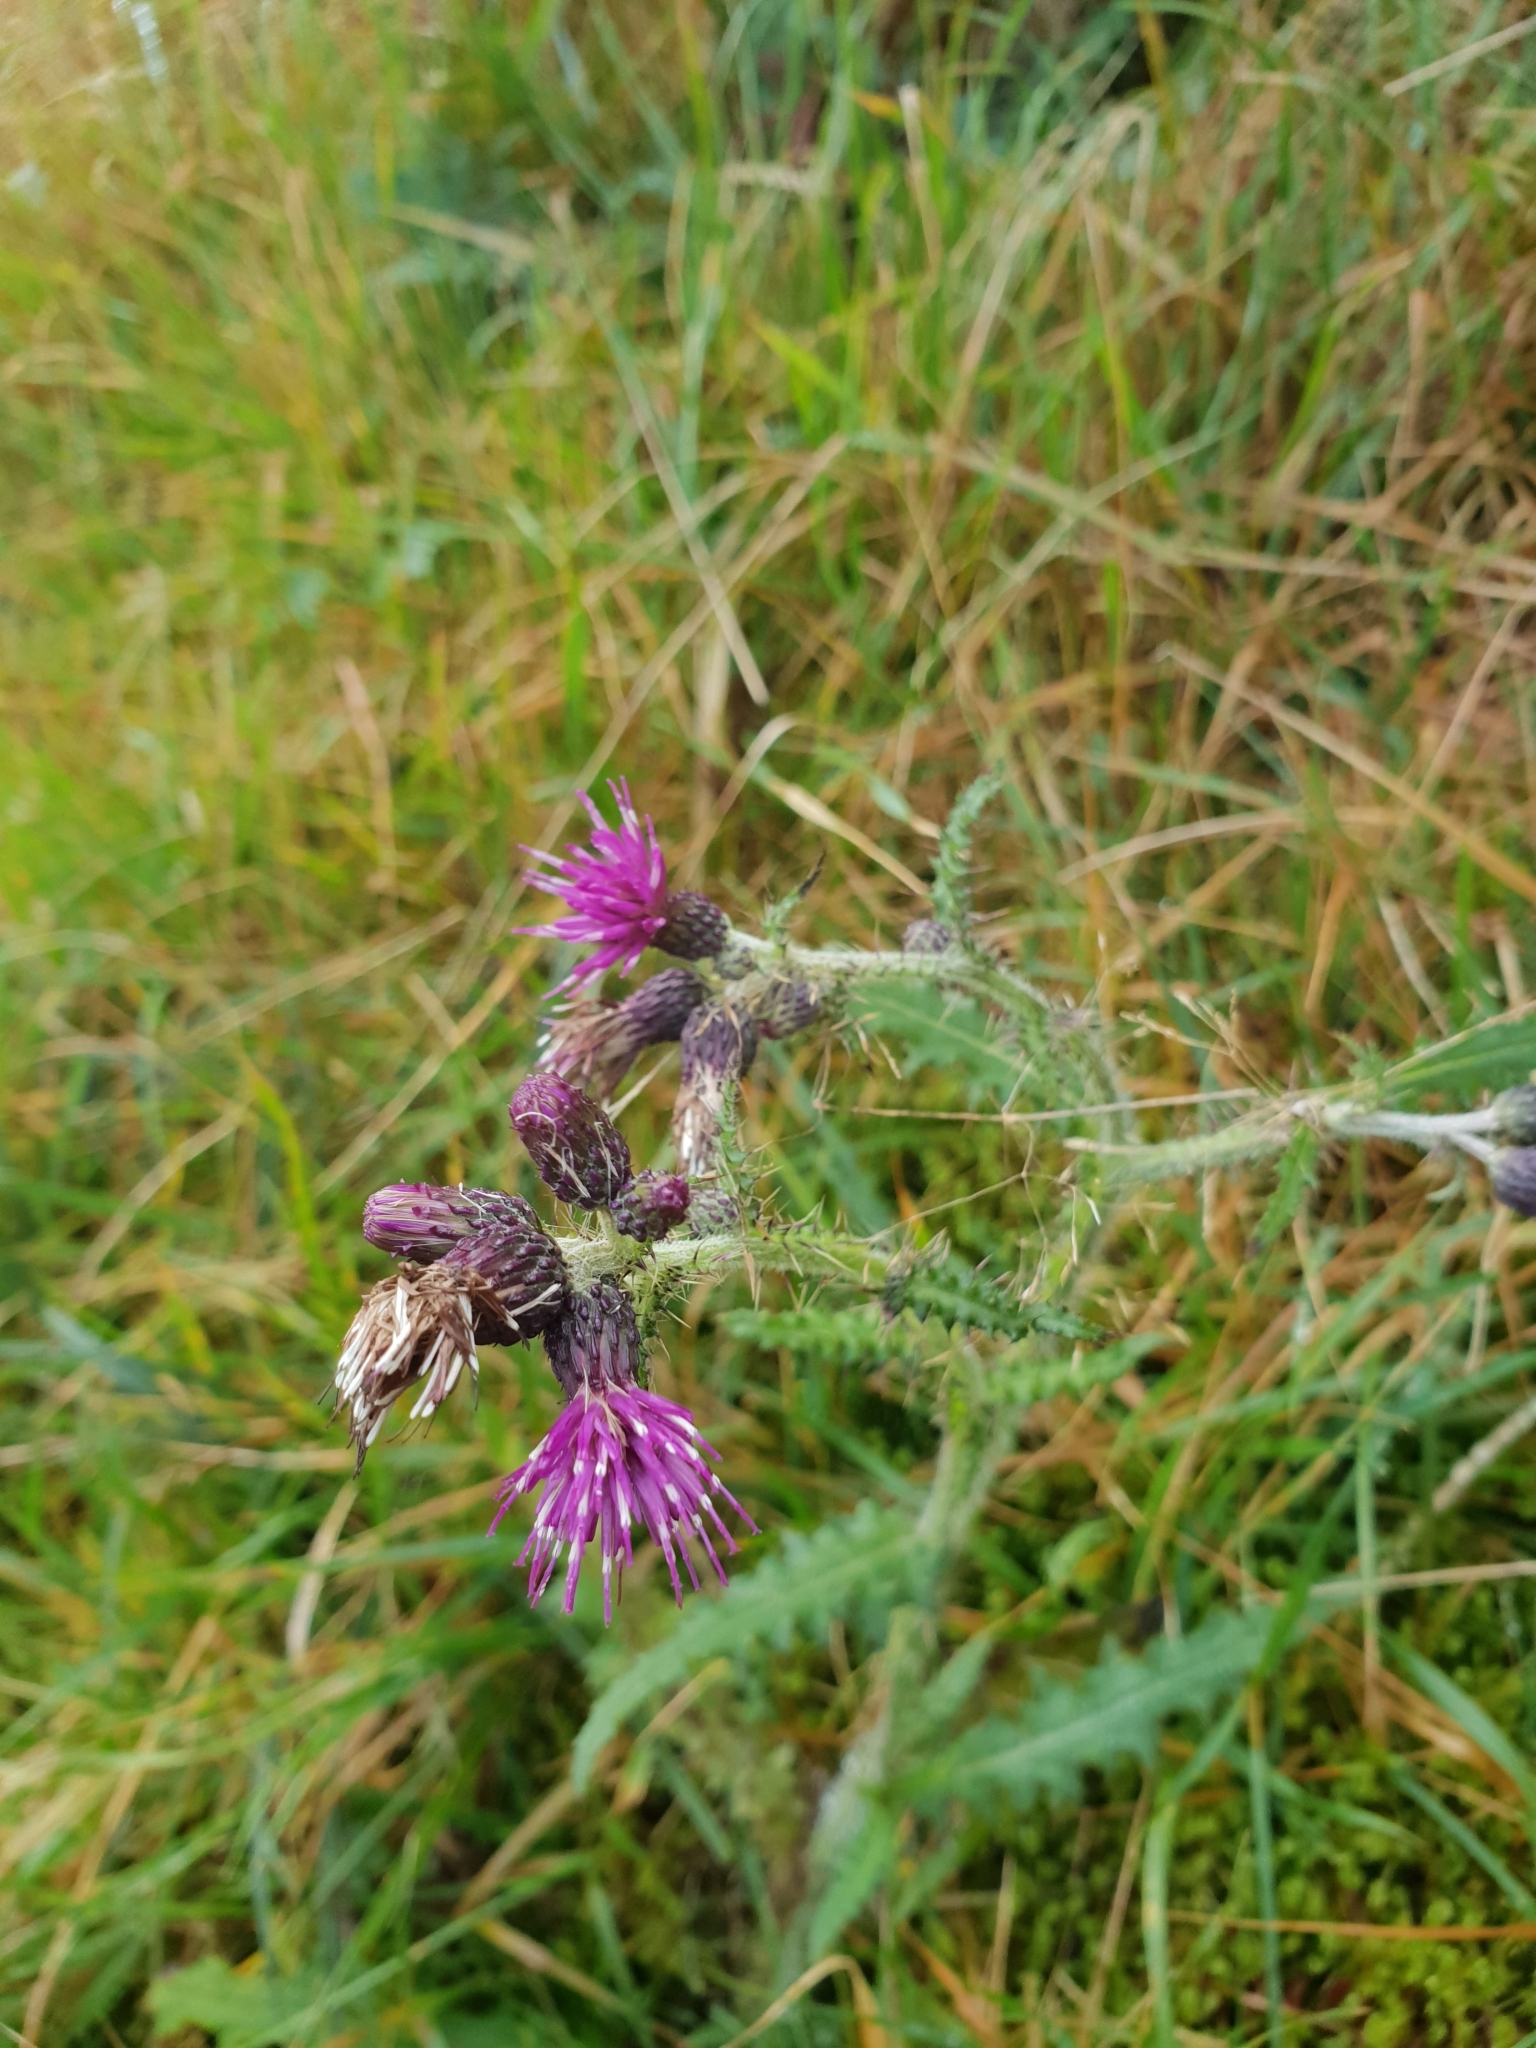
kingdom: Plantae
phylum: Tracheophyta
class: Magnoliopsida
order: Asterales
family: Asteraceae
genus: Cirsium
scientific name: Cirsium palustre
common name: Marsh thistle
